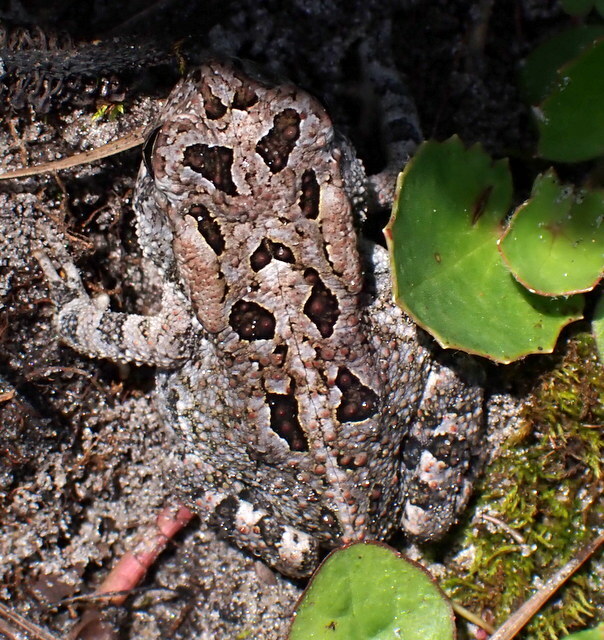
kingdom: Animalia
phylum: Chordata
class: Amphibia
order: Anura
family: Bufonidae
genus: Anaxyrus
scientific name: Anaxyrus terrestris
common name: Southern toad
